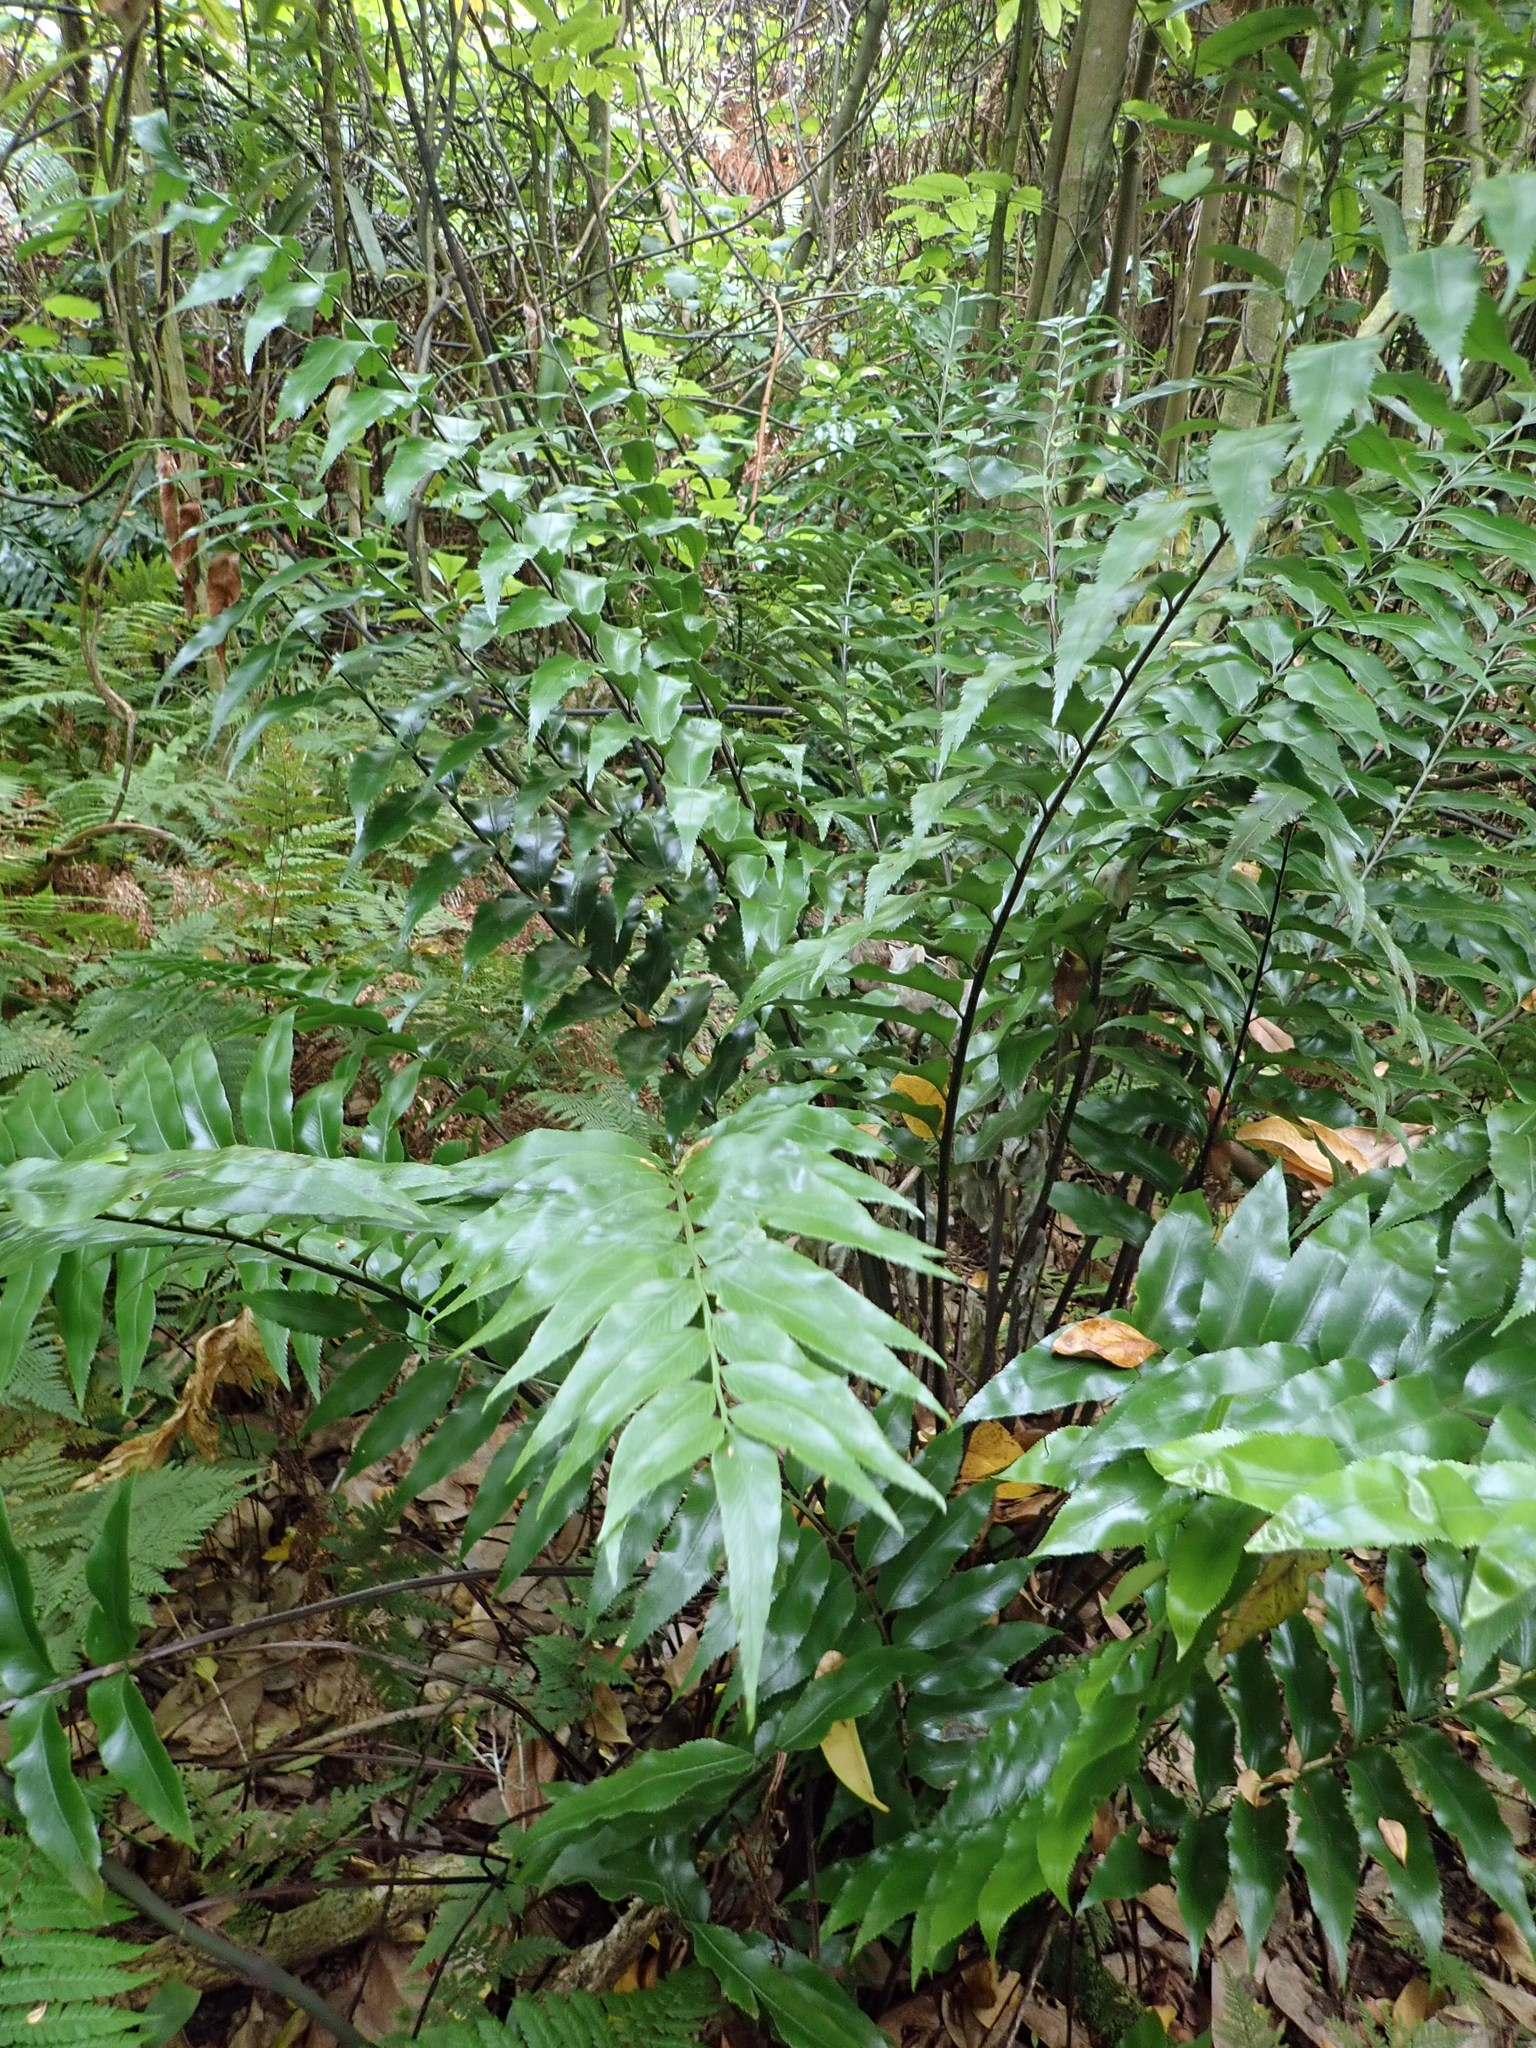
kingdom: Plantae
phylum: Tracheophyta
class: Polypodiopsida
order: Polypodiales
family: Aspleniaceae
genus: Asplenium
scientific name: Asplenium oblongifolium
